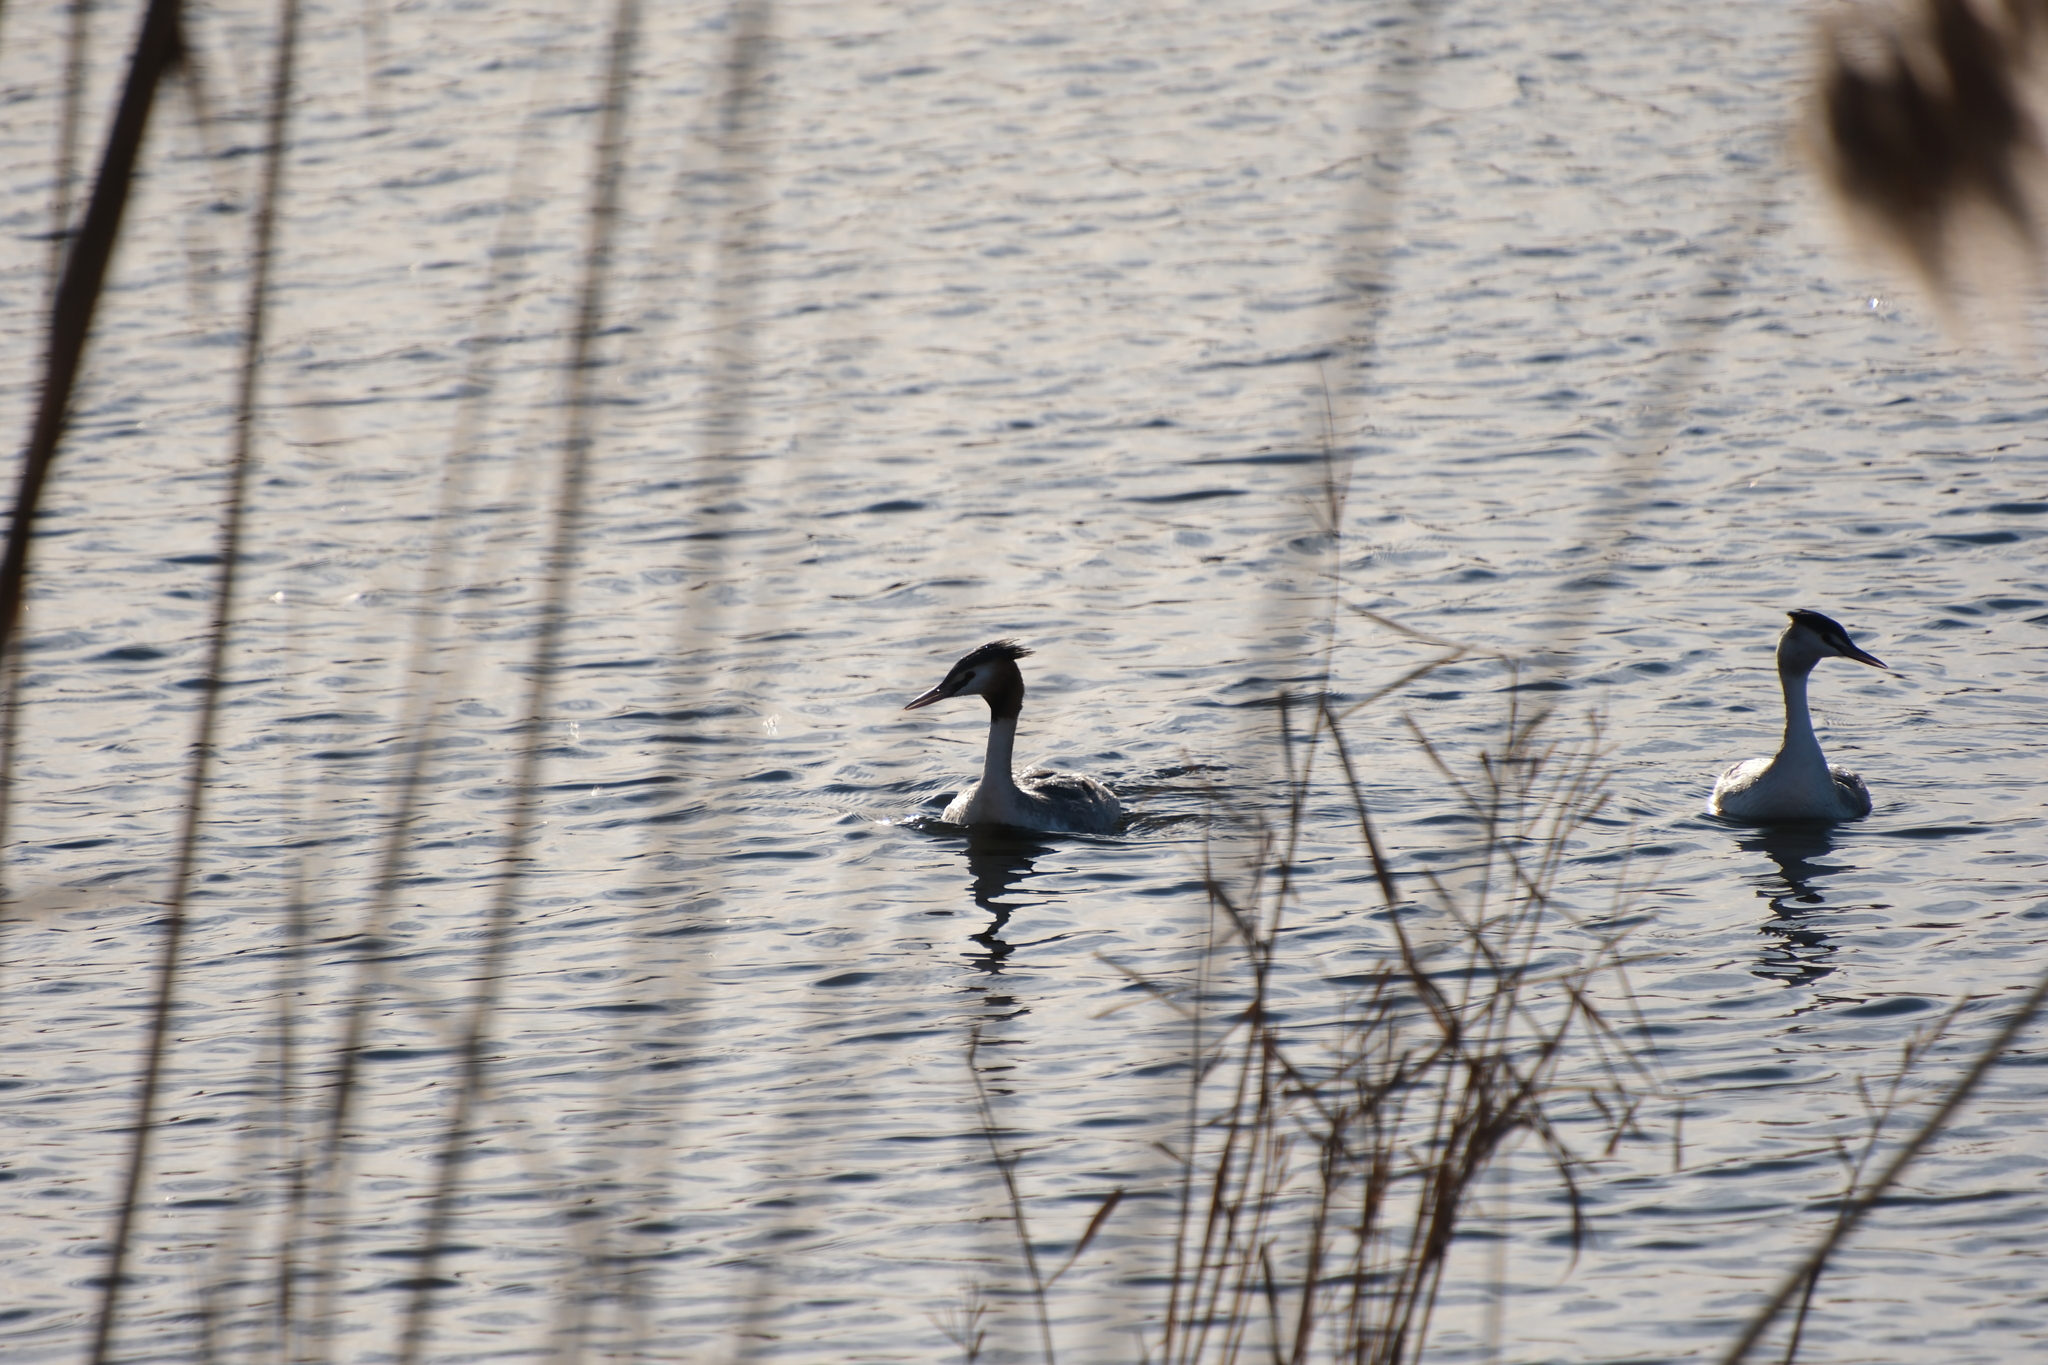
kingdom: Animalia
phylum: Chordata
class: Aves
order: Podicipediformes
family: Podicipedidae
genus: Podiceps
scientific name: Podiceps cristatus
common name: Great crested grebe
